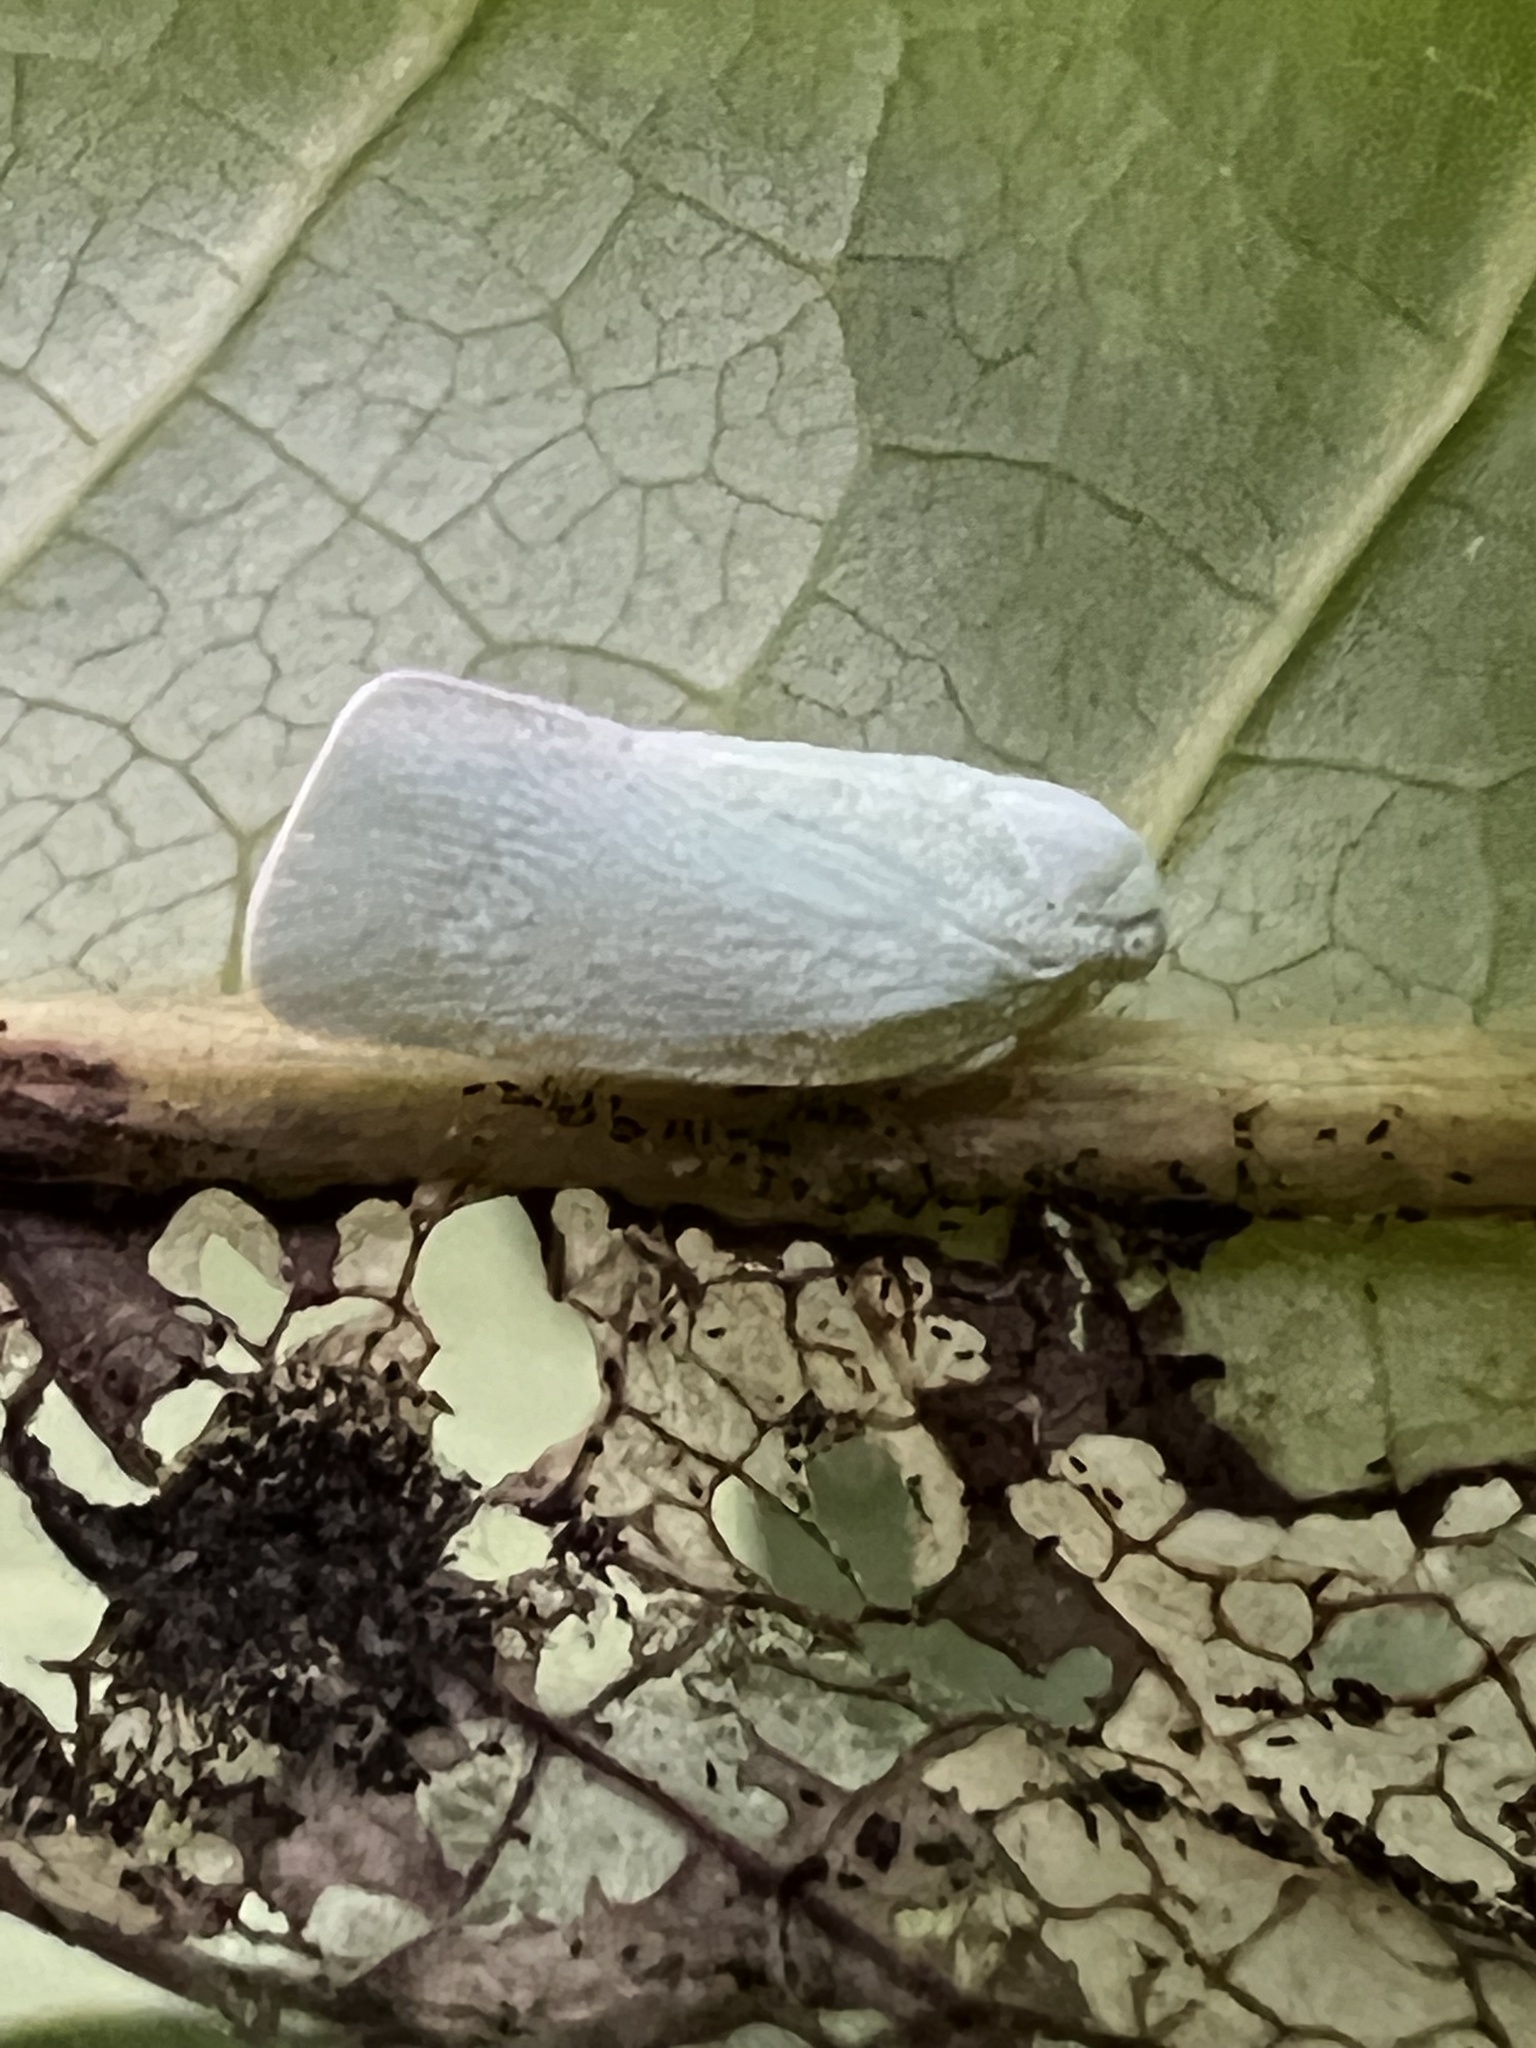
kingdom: Animalia
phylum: Arthropoda
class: Insecta
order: Hemiptera
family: Flatidae
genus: Flatormenis
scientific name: Flatormenis proxima
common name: Northern flatid planthopper
